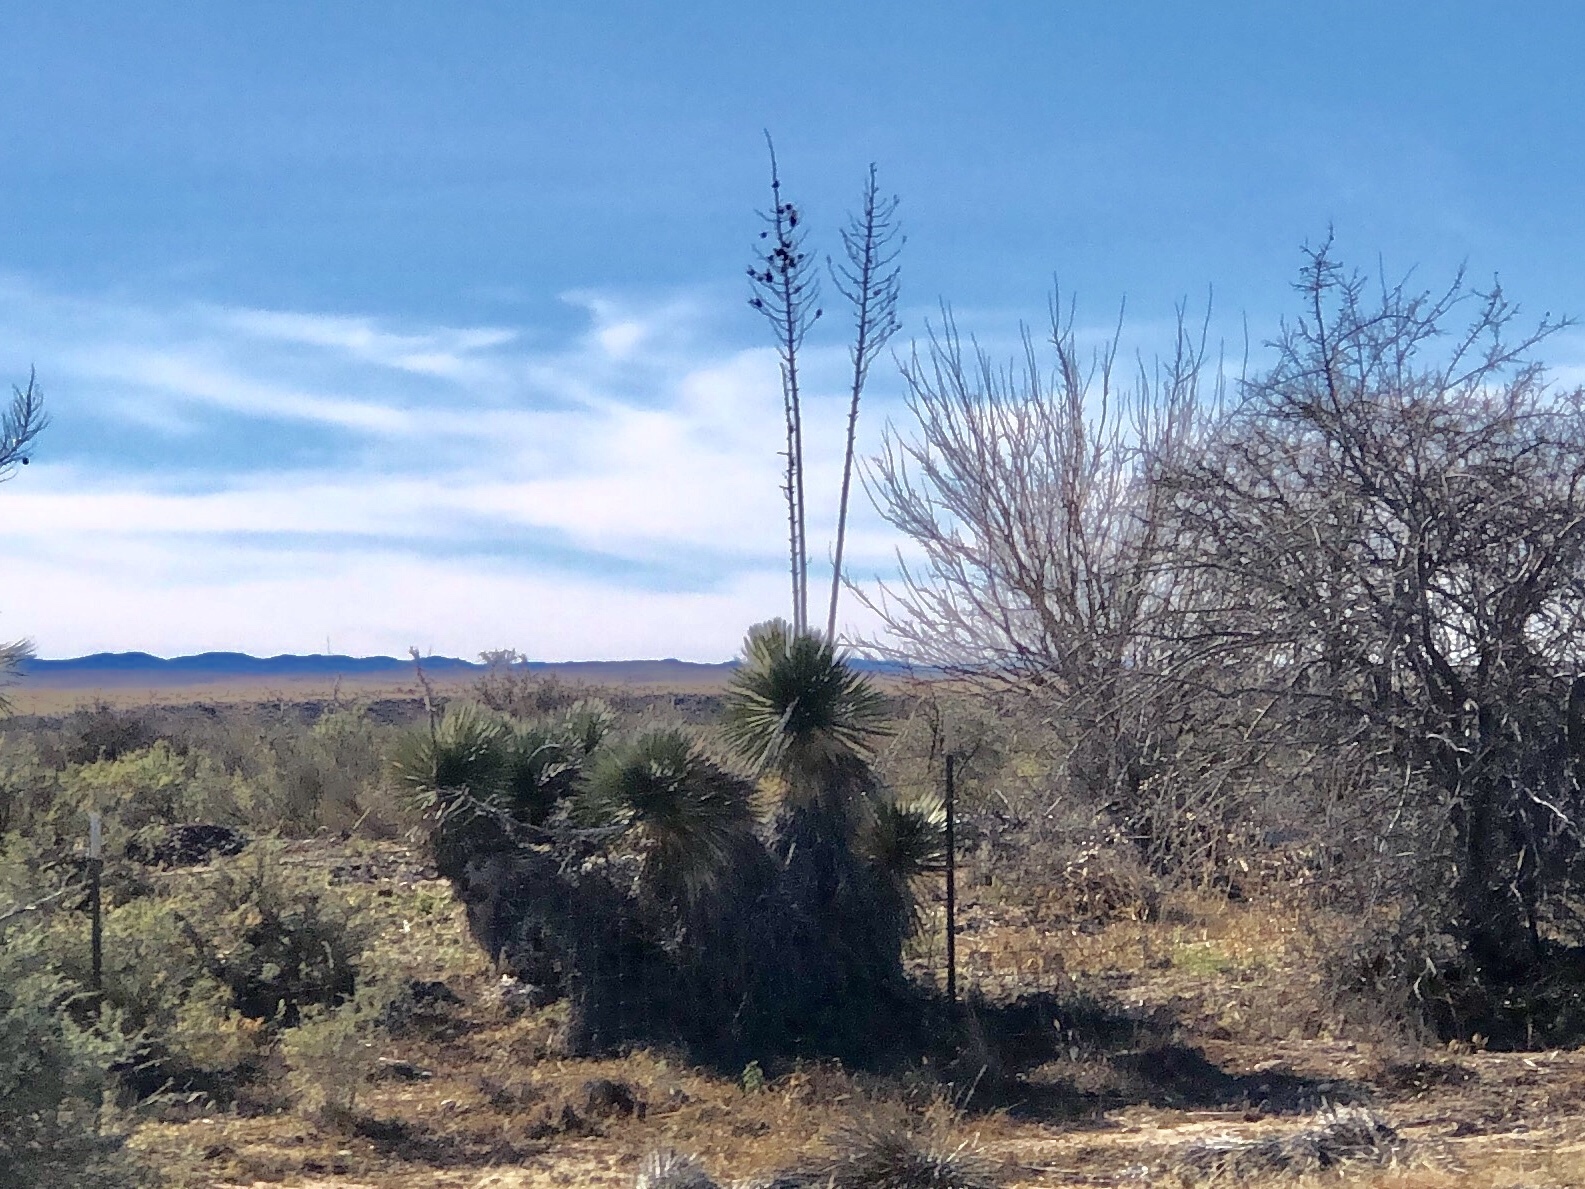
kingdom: Plantae
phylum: Tracheophyta
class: Liliopsida
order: Asparagales
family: Asparagaceae
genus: Yucca
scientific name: Yucca elata
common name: Palmella
